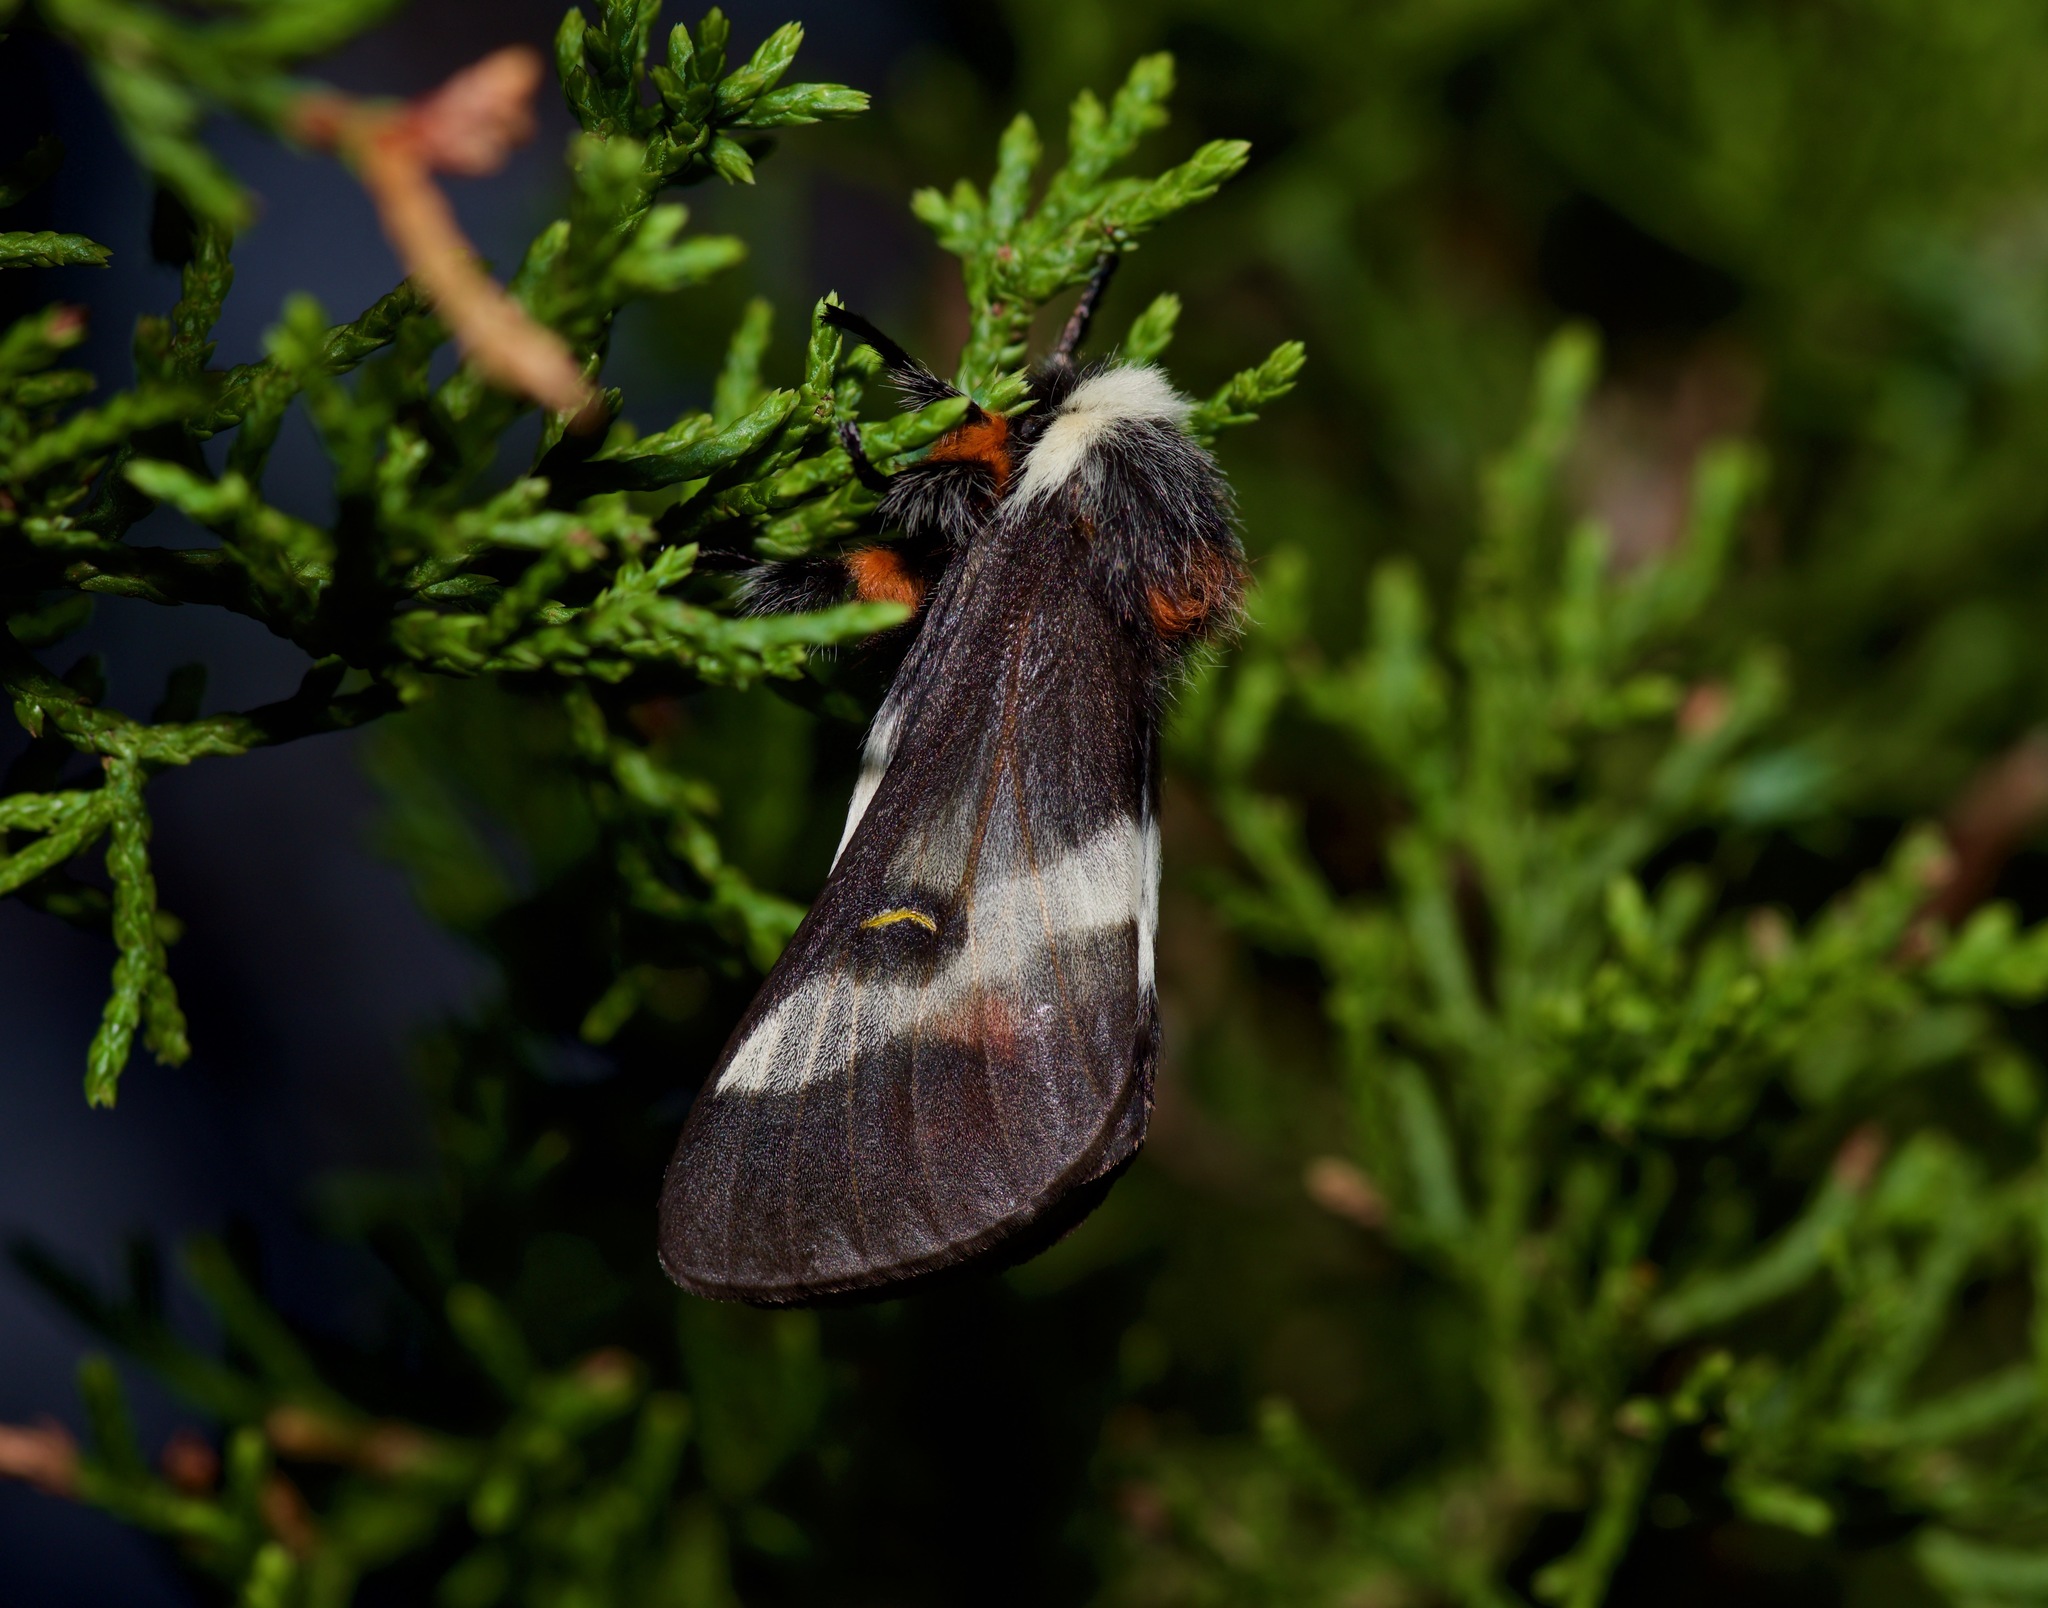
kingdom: Animalia
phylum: Arthropoda
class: Insecta
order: Lepidoptera
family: Saturniidae
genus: Hemileuca
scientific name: Hemileuca peigleri
